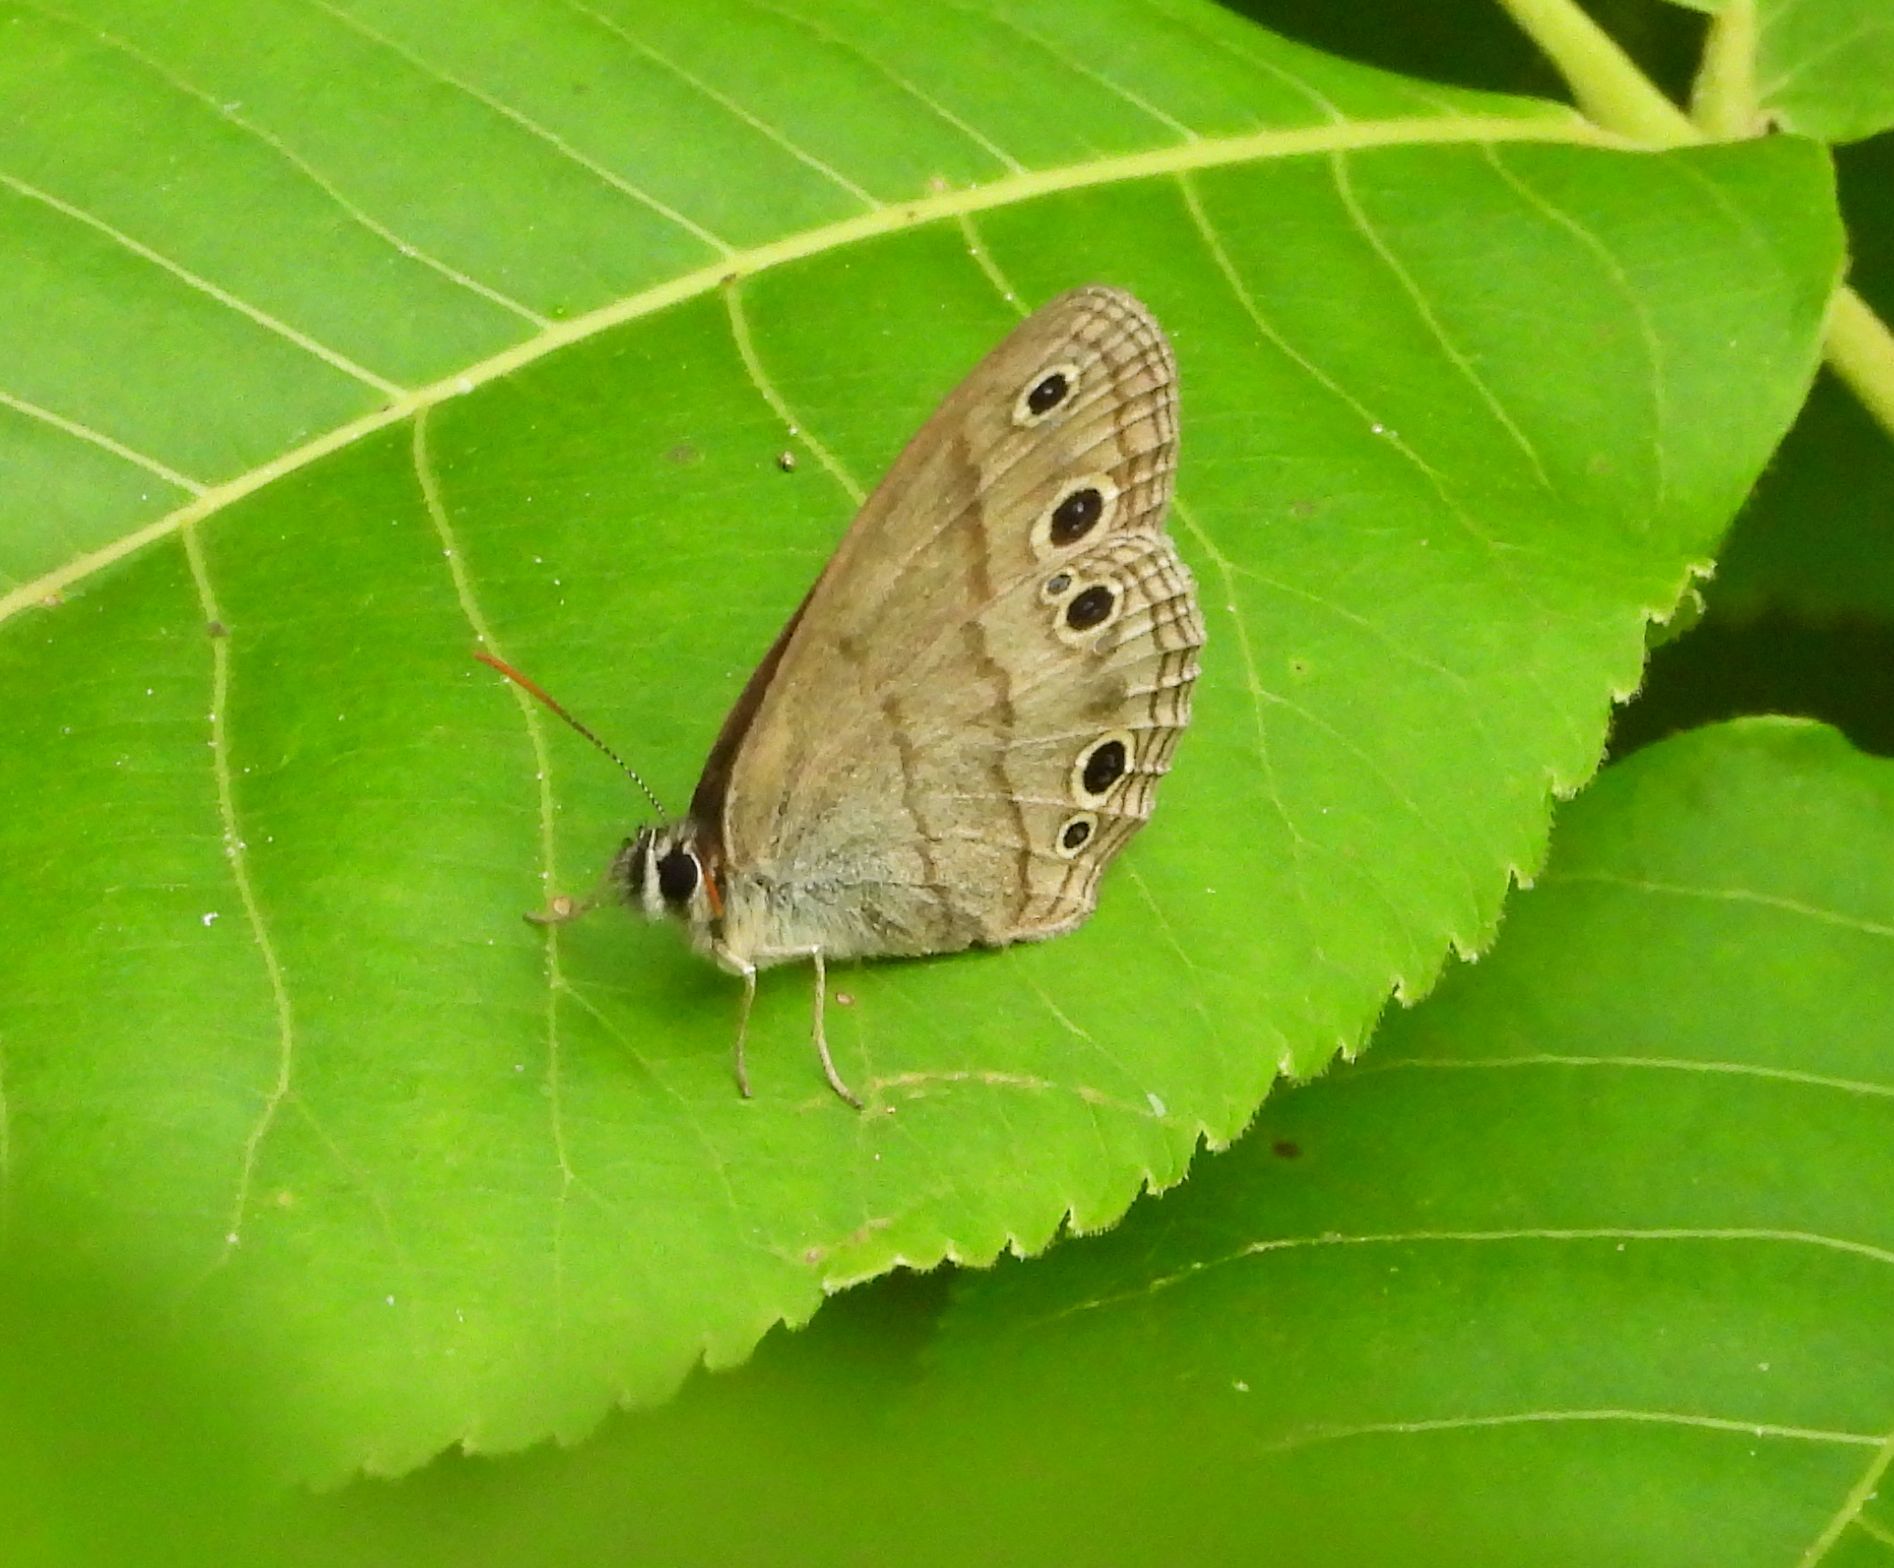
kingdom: Animalia
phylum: Arthropoda
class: Insecta
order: Lepidoptera
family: Nymphalidae
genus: Euptychia
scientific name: Euptychia cymela
